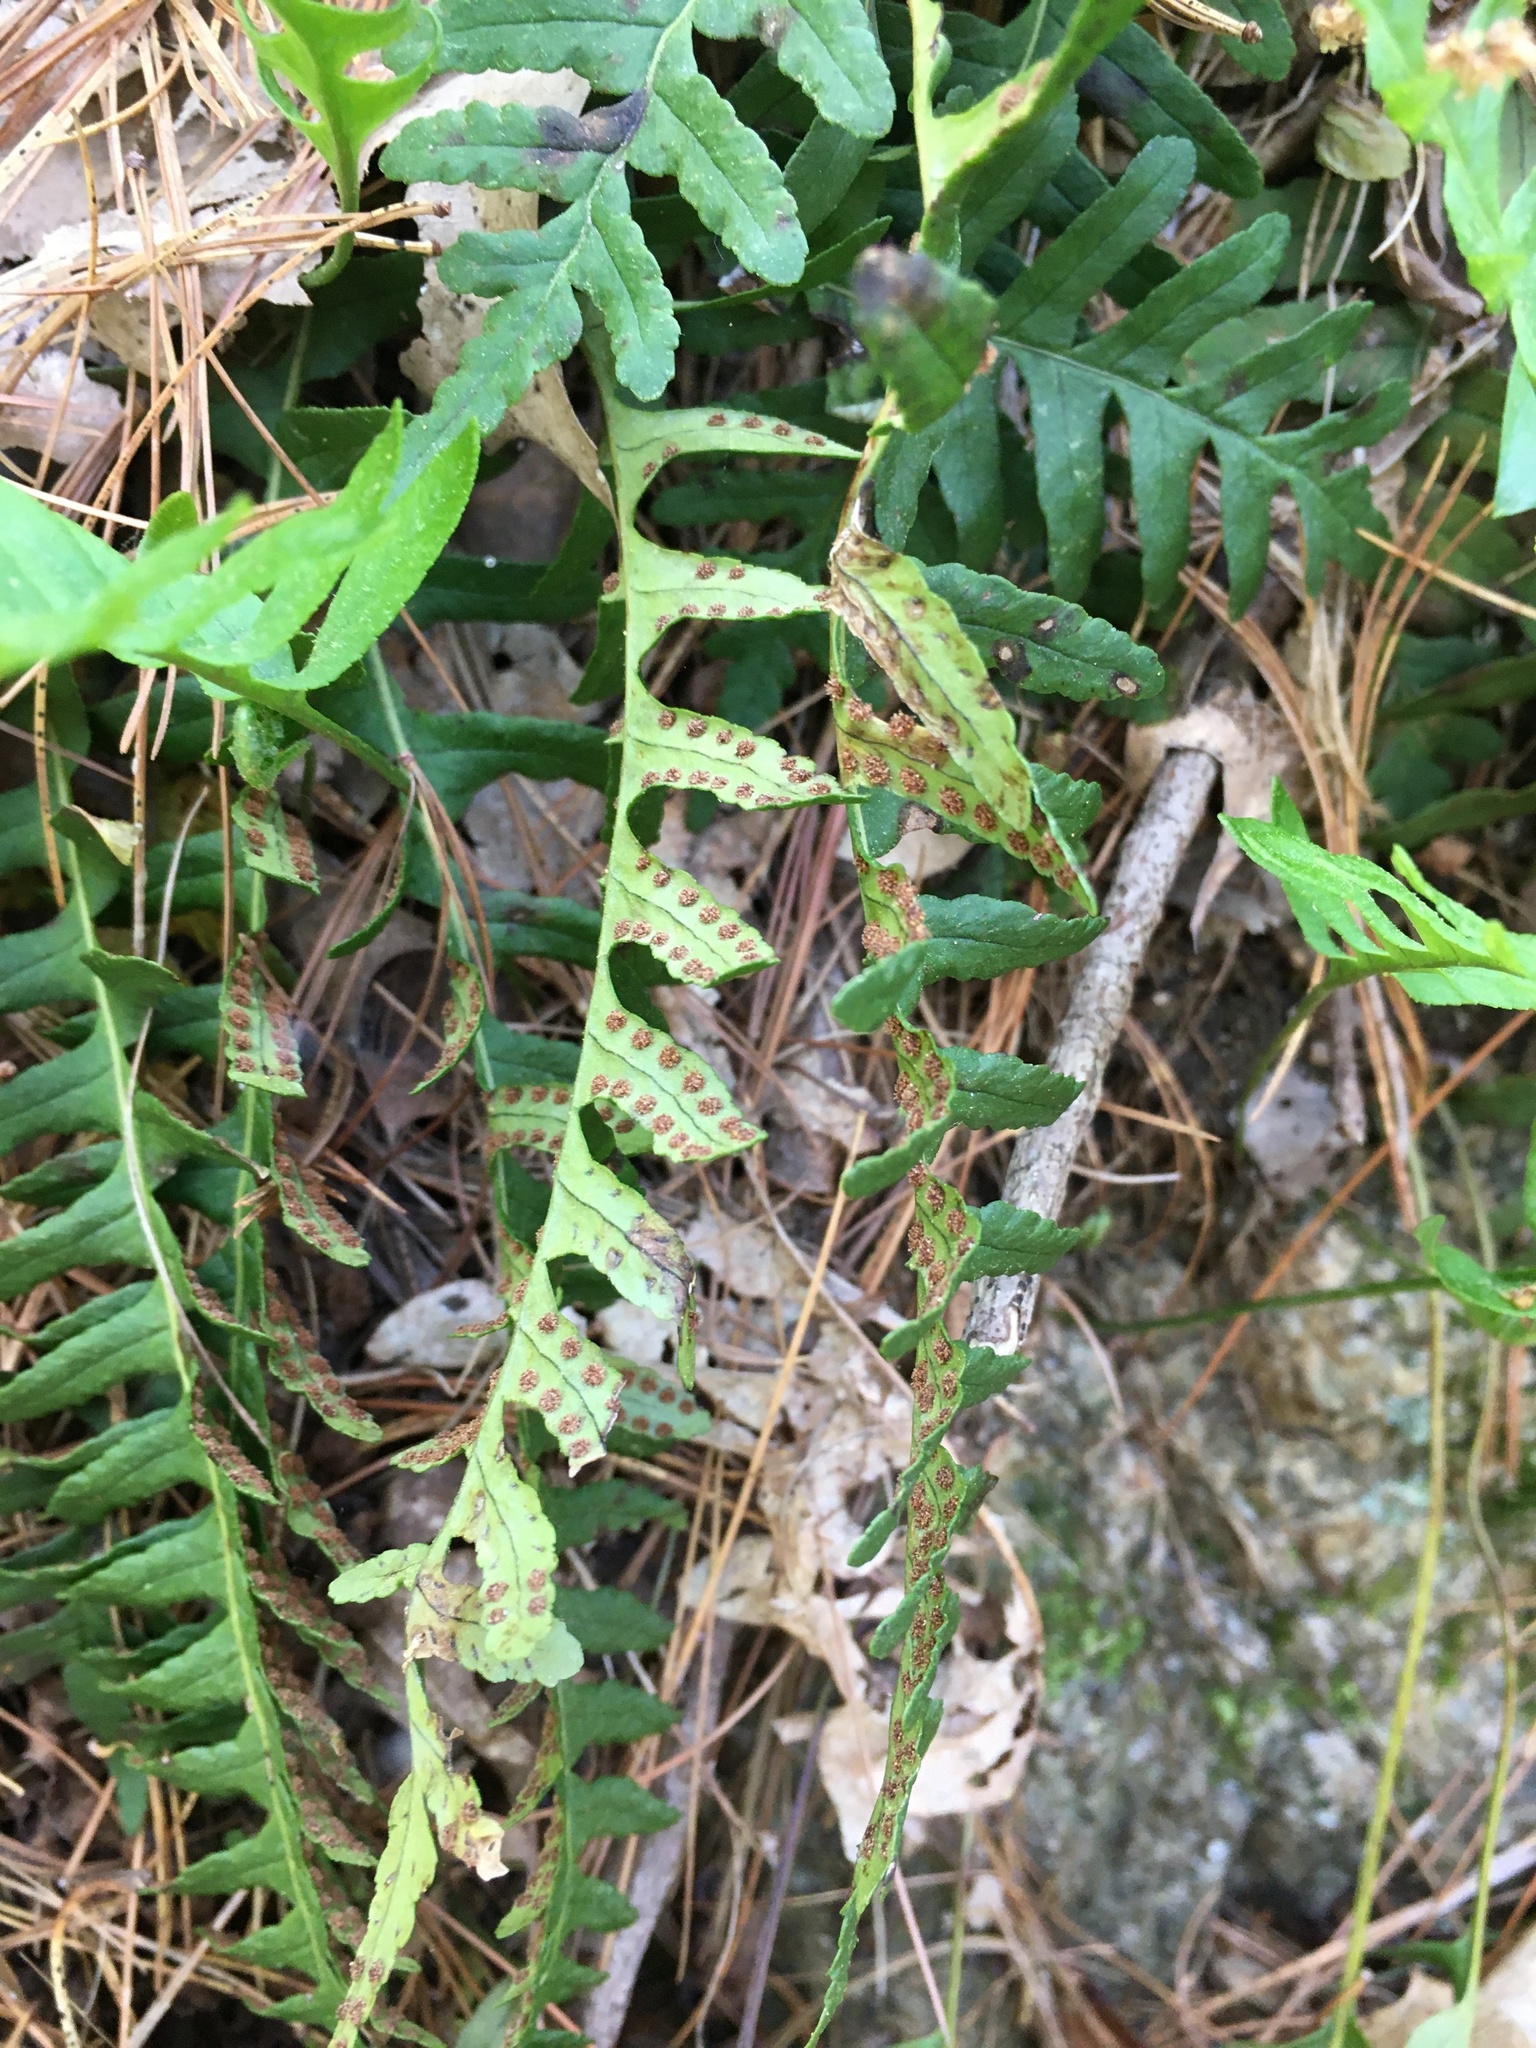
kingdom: Plantae
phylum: Tracheophyta
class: Polypodiopsida
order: Polypodiales
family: Polypodiaceae
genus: Polypodium
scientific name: Polypodium virginianum
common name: American wall fern
